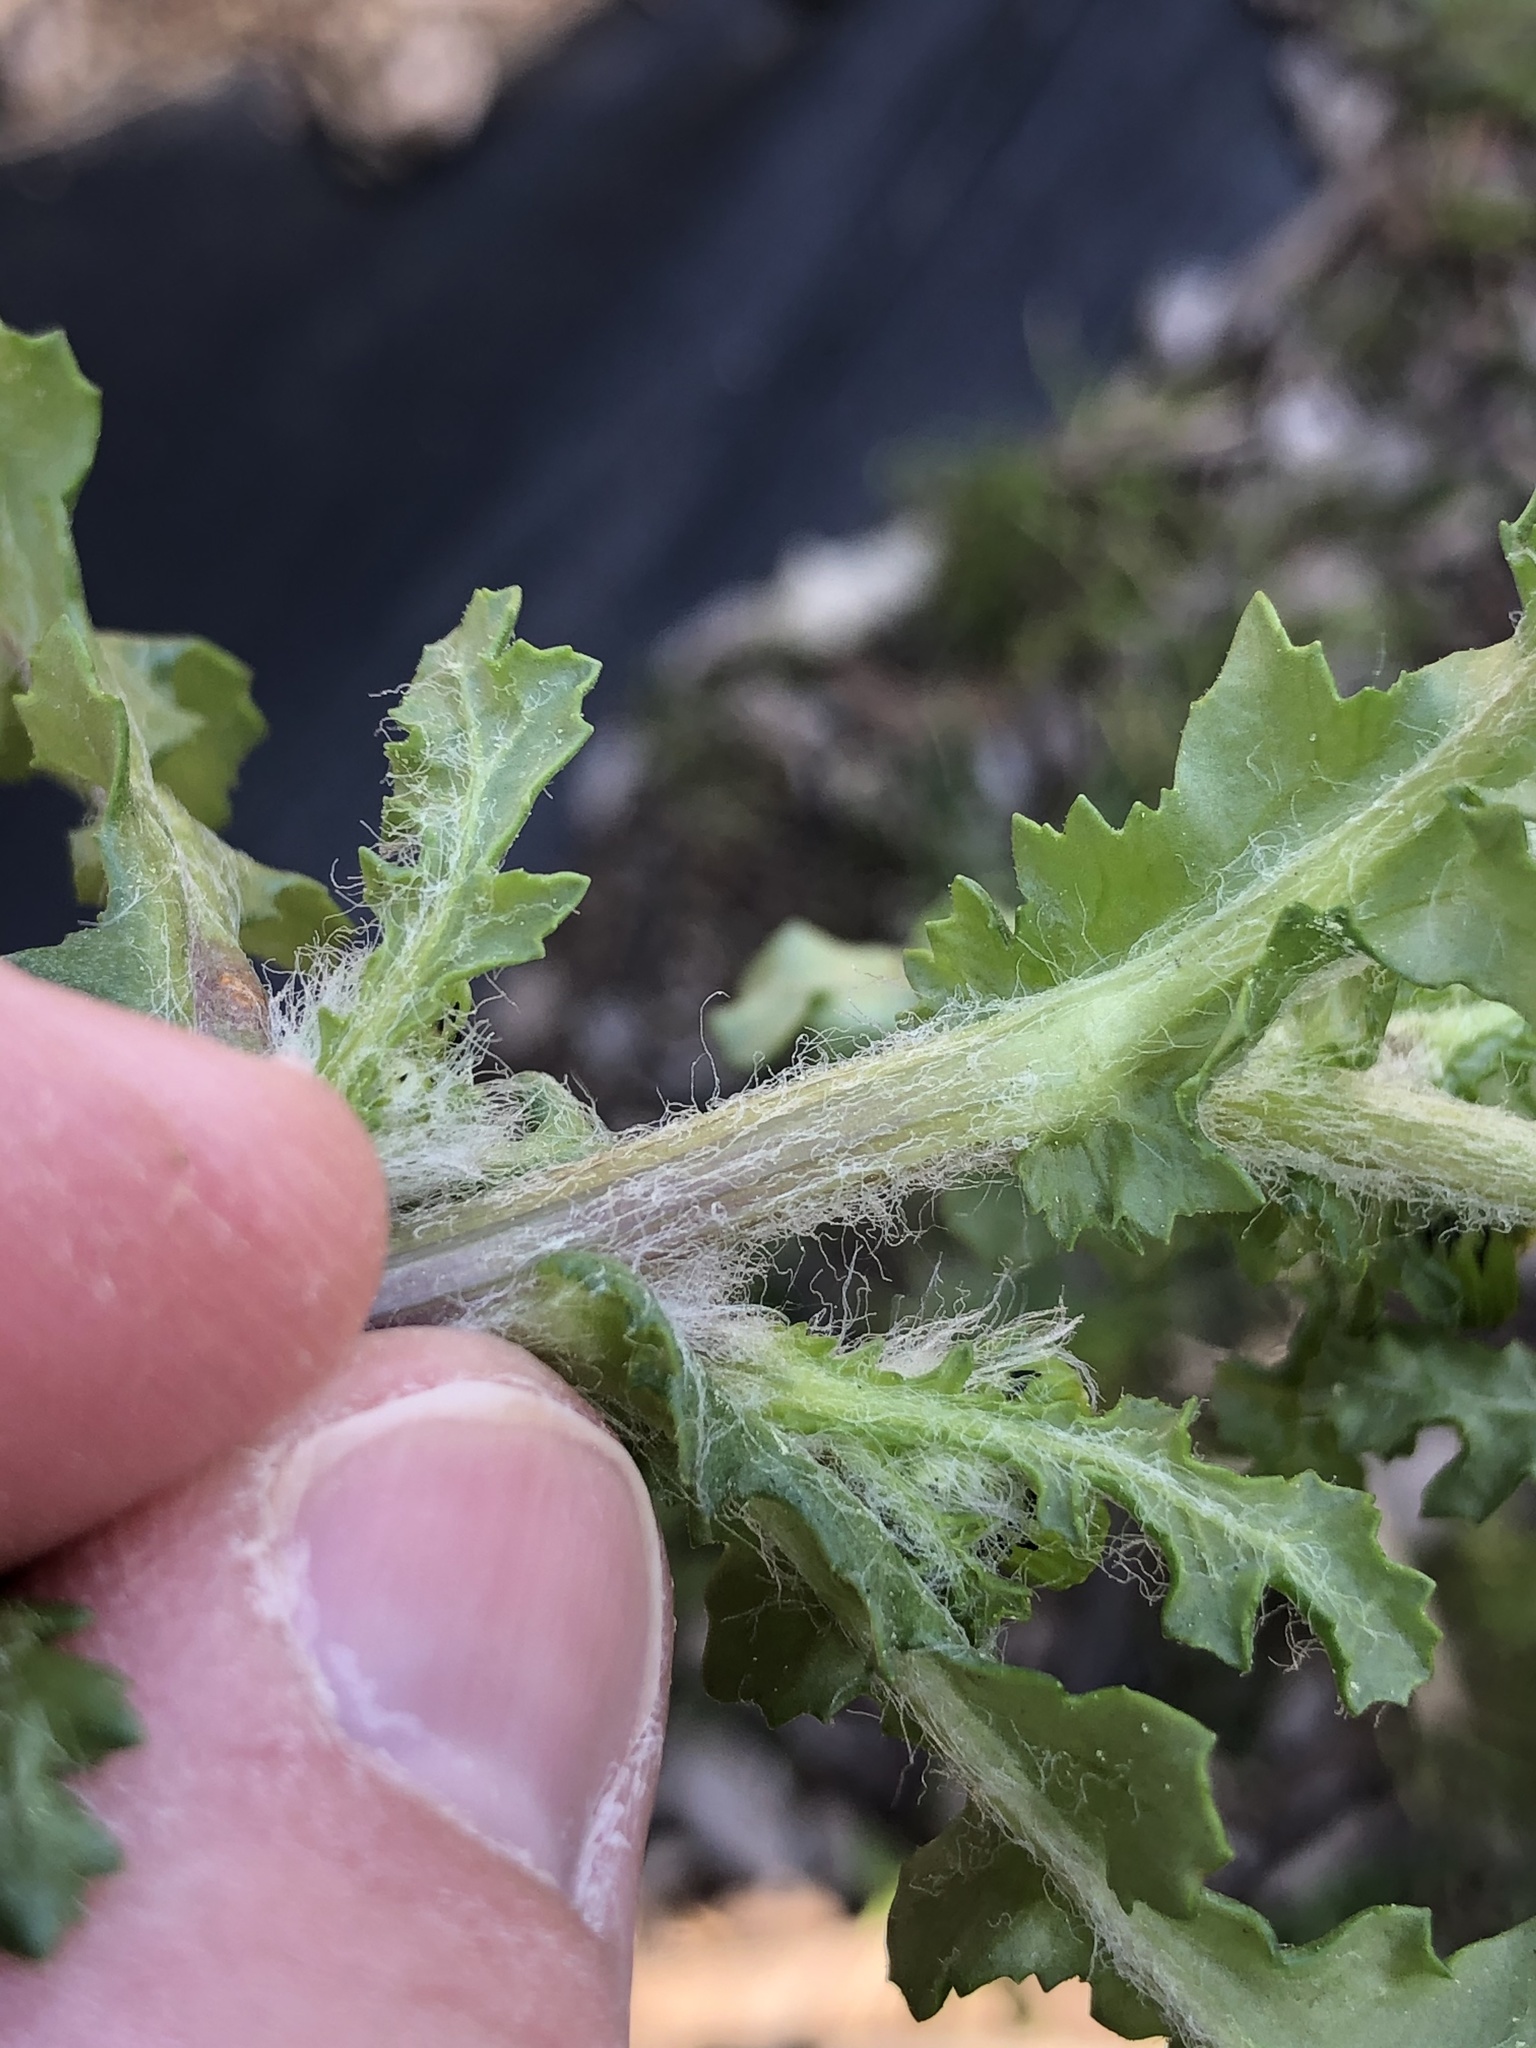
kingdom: Plantae
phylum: Tracheophyta
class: Magnoliopsida
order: Asterales
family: Asteraceae
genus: Senecio
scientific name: Senecio vulgaris
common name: Old-man-in-the-spring
